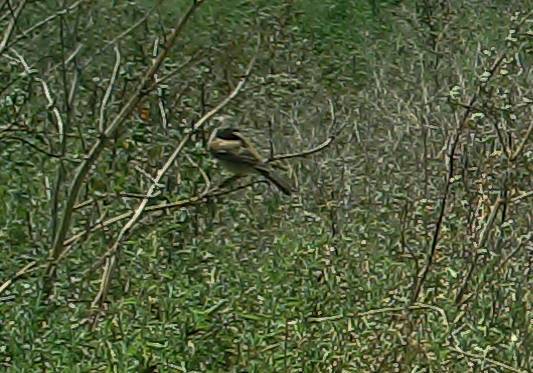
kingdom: Animalia
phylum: Chordata
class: Aves
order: Passeriformes
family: Passeridae
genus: Passer
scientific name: Passer melanurus
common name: Cape sparrow
